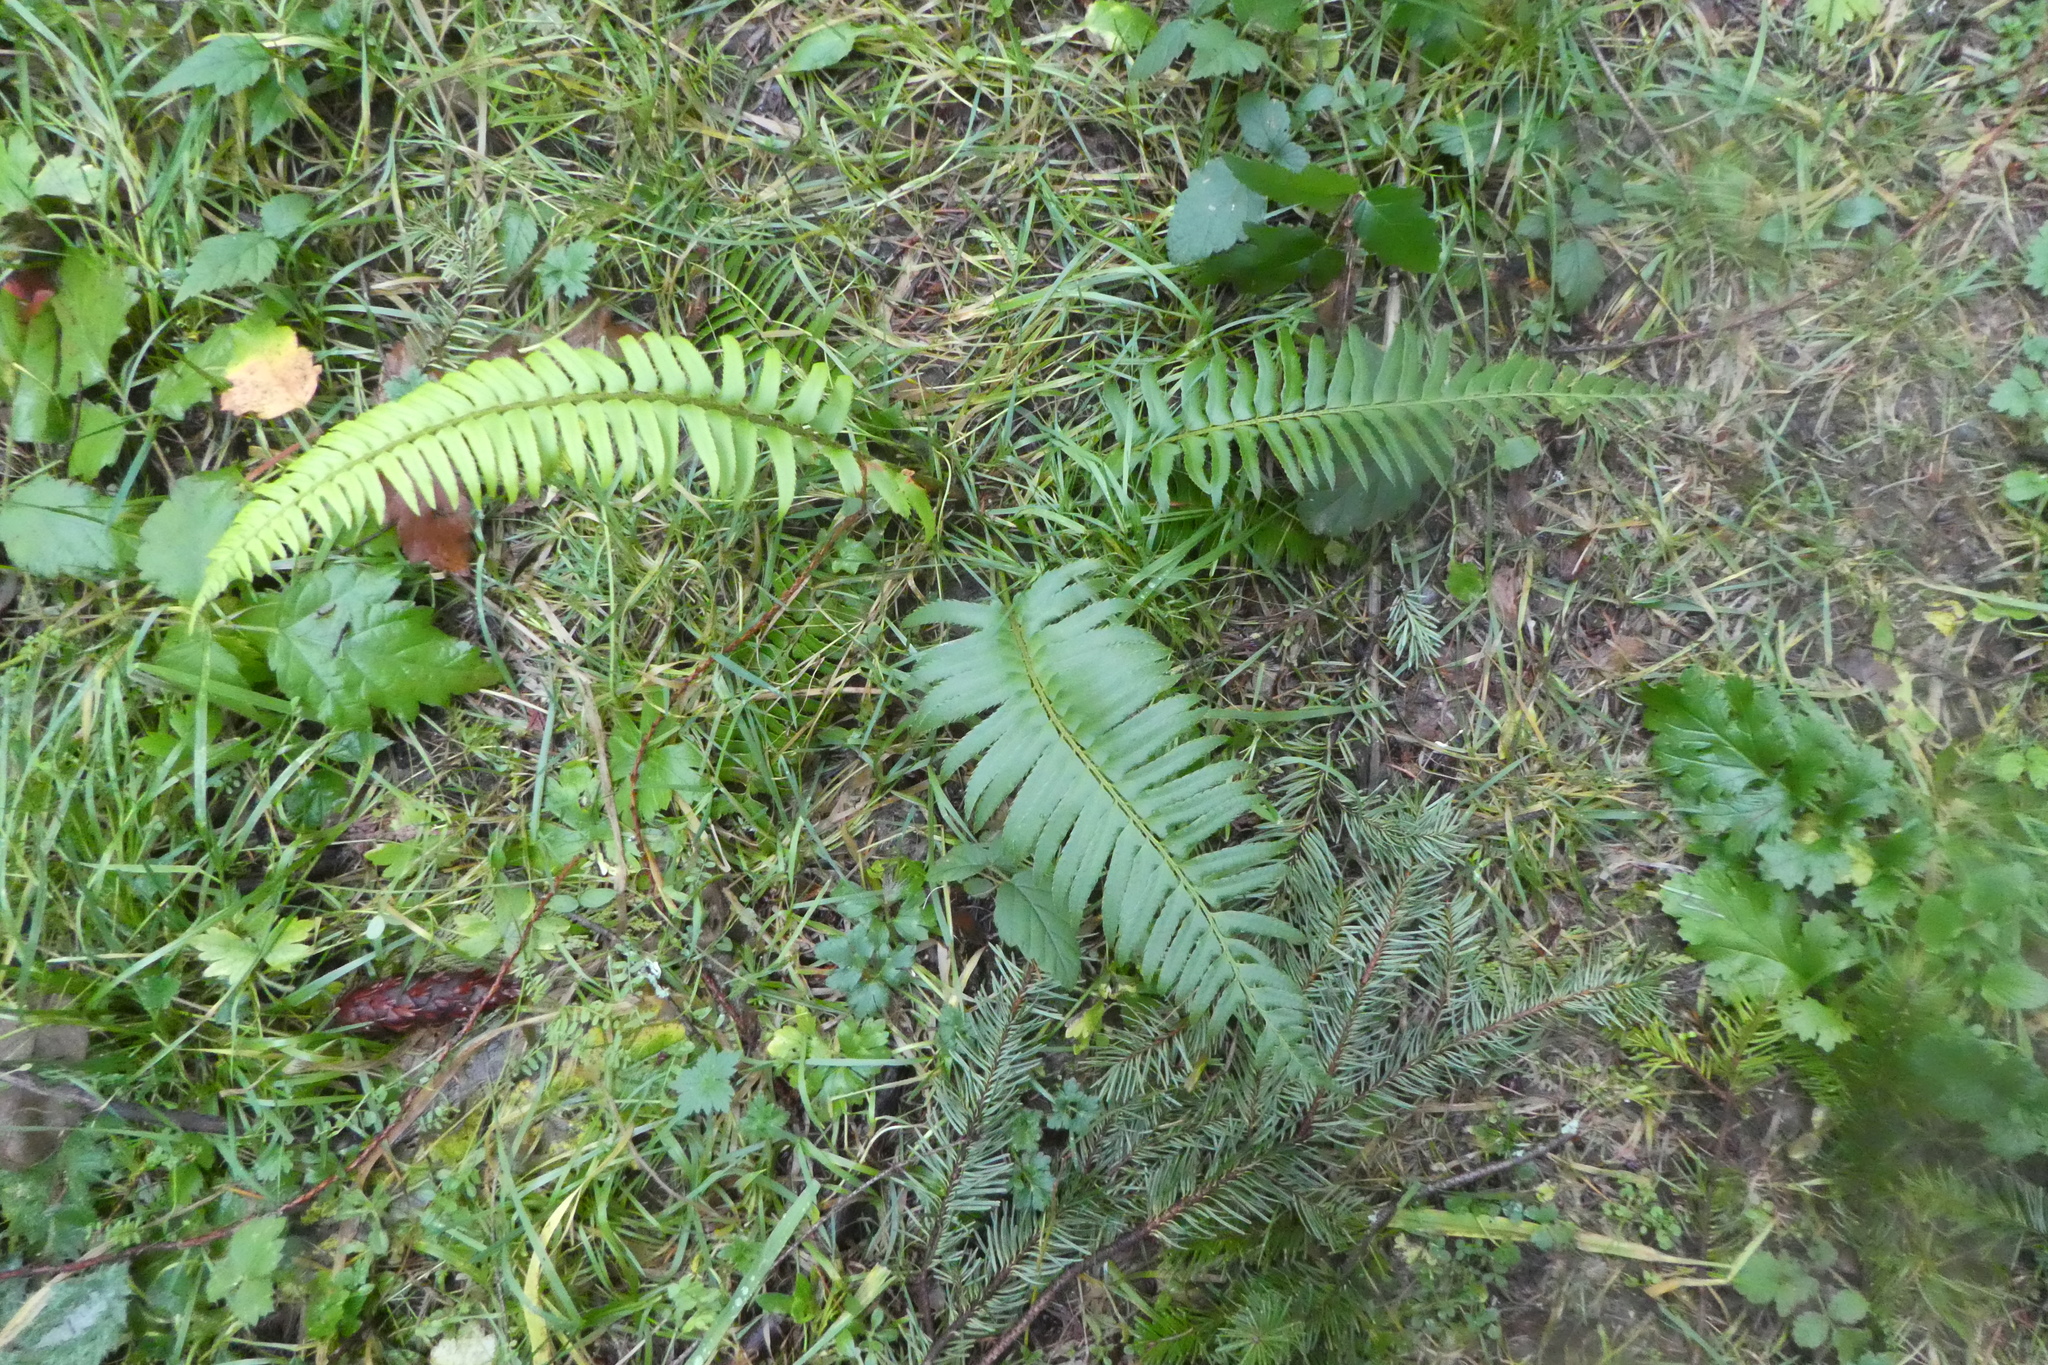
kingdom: Plantae
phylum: Tracheophyta
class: Polypodiopsida
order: Polypodiales
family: Dryopteridaceae
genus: Polystichum
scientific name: Polystichum munitum
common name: Western sword-fern
